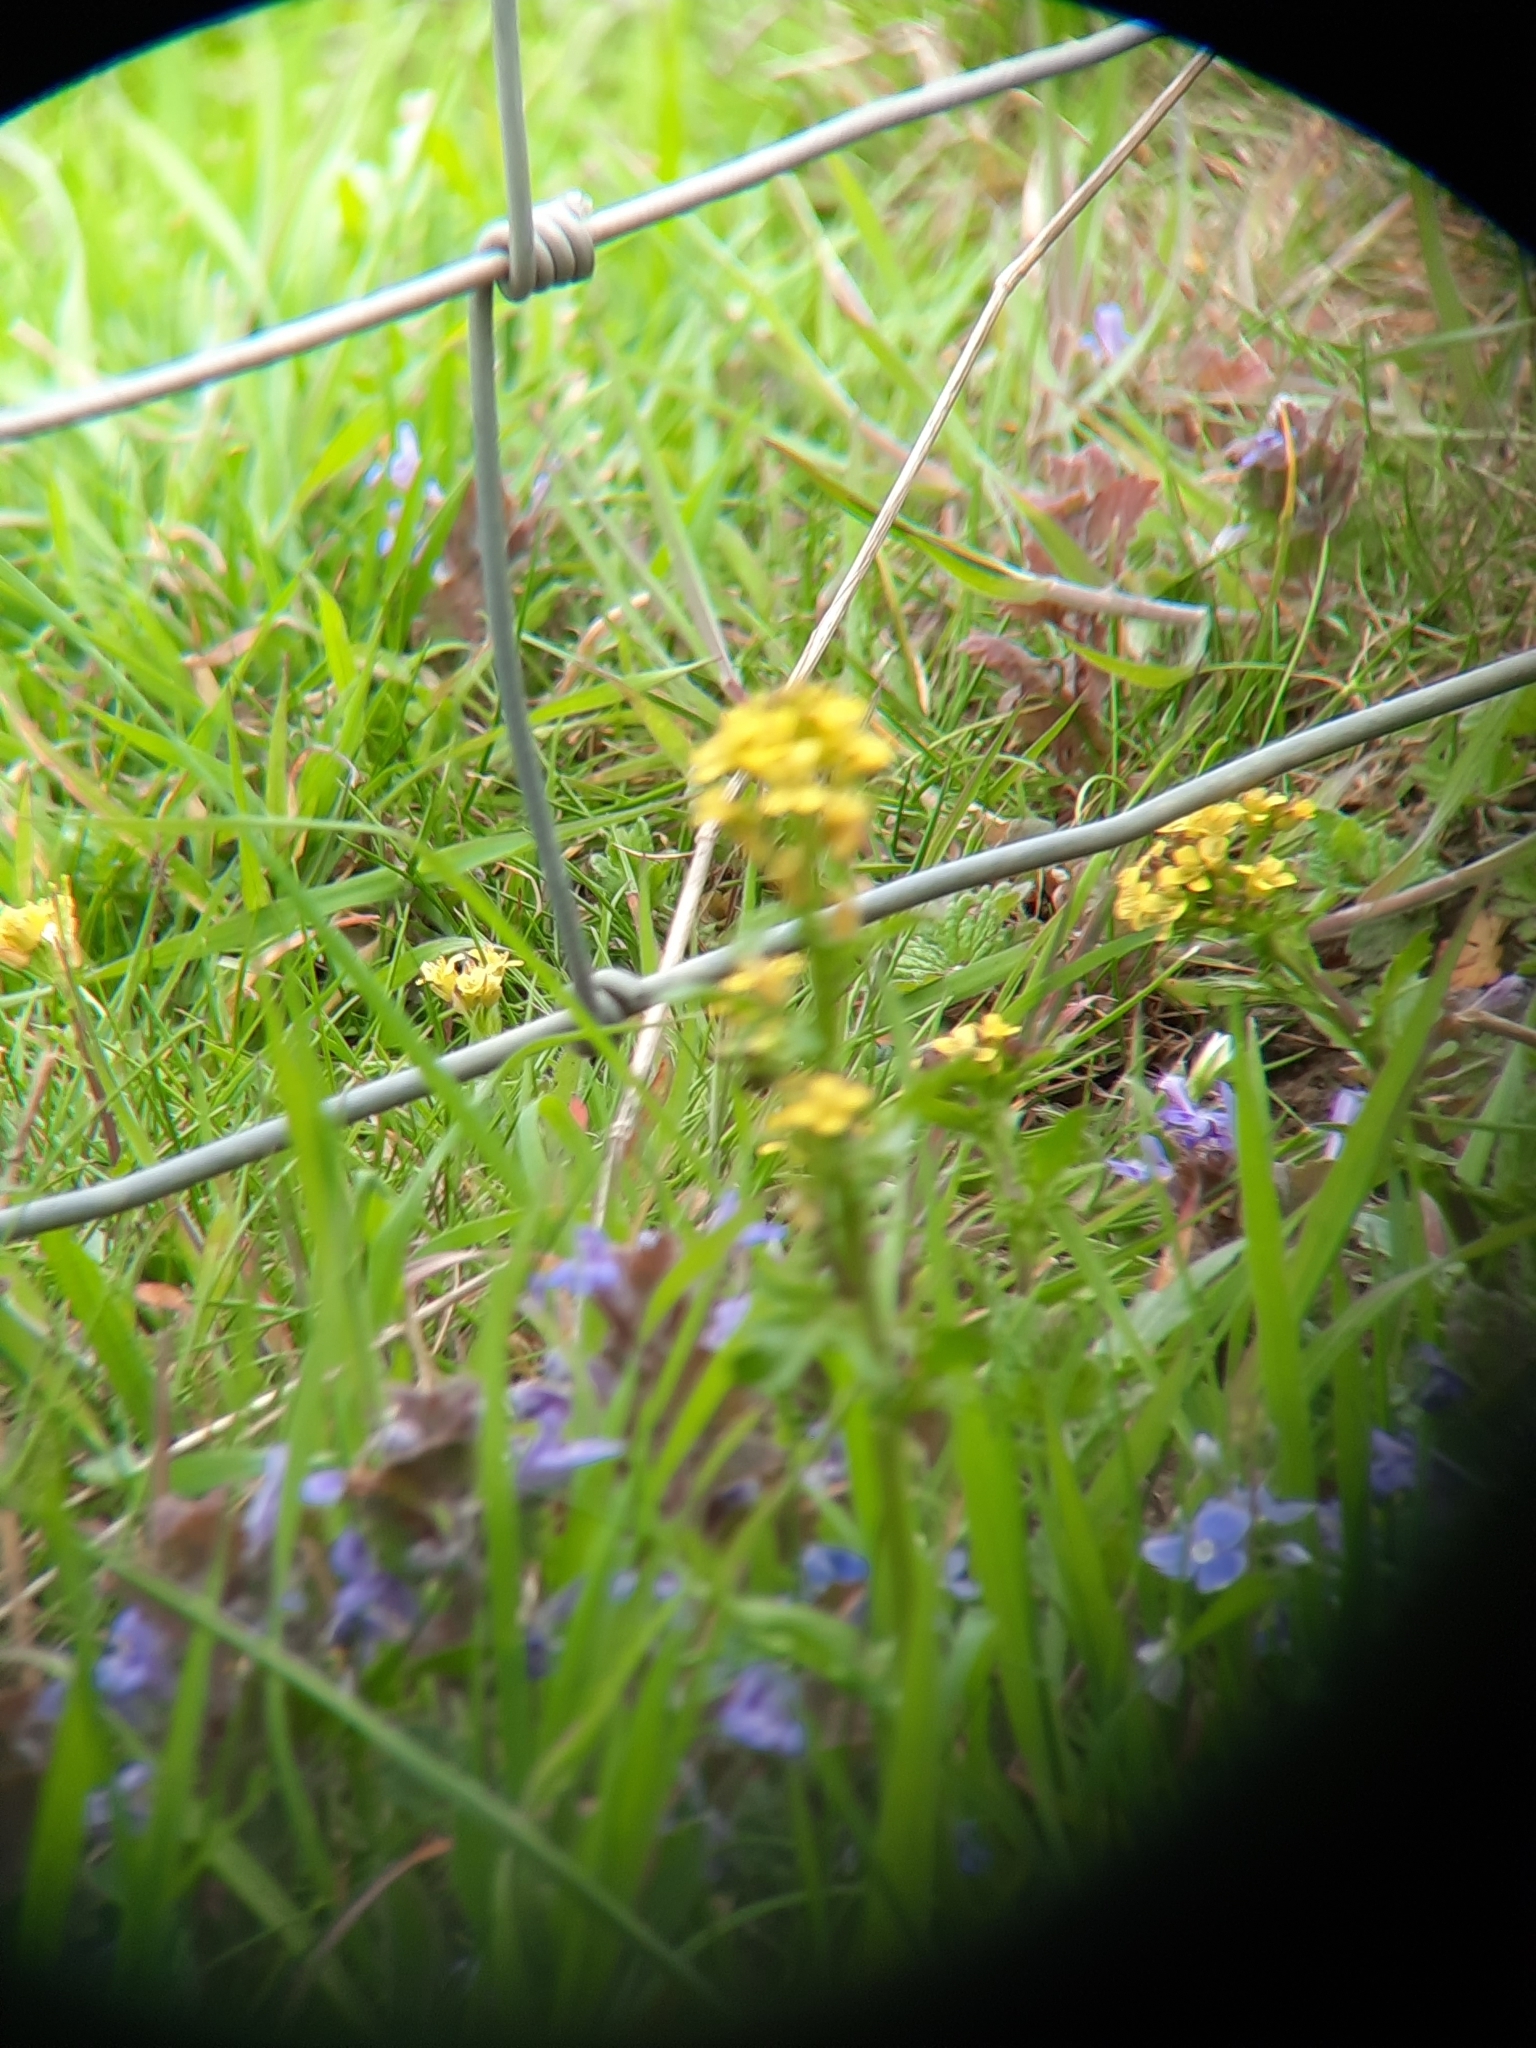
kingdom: Plantae
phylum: Tracheophyta
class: Magnoliopsida
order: Brassicales
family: Brassicaceae
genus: Sisymbrium
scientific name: Sisymbrium officinale
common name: Hedge mustard
